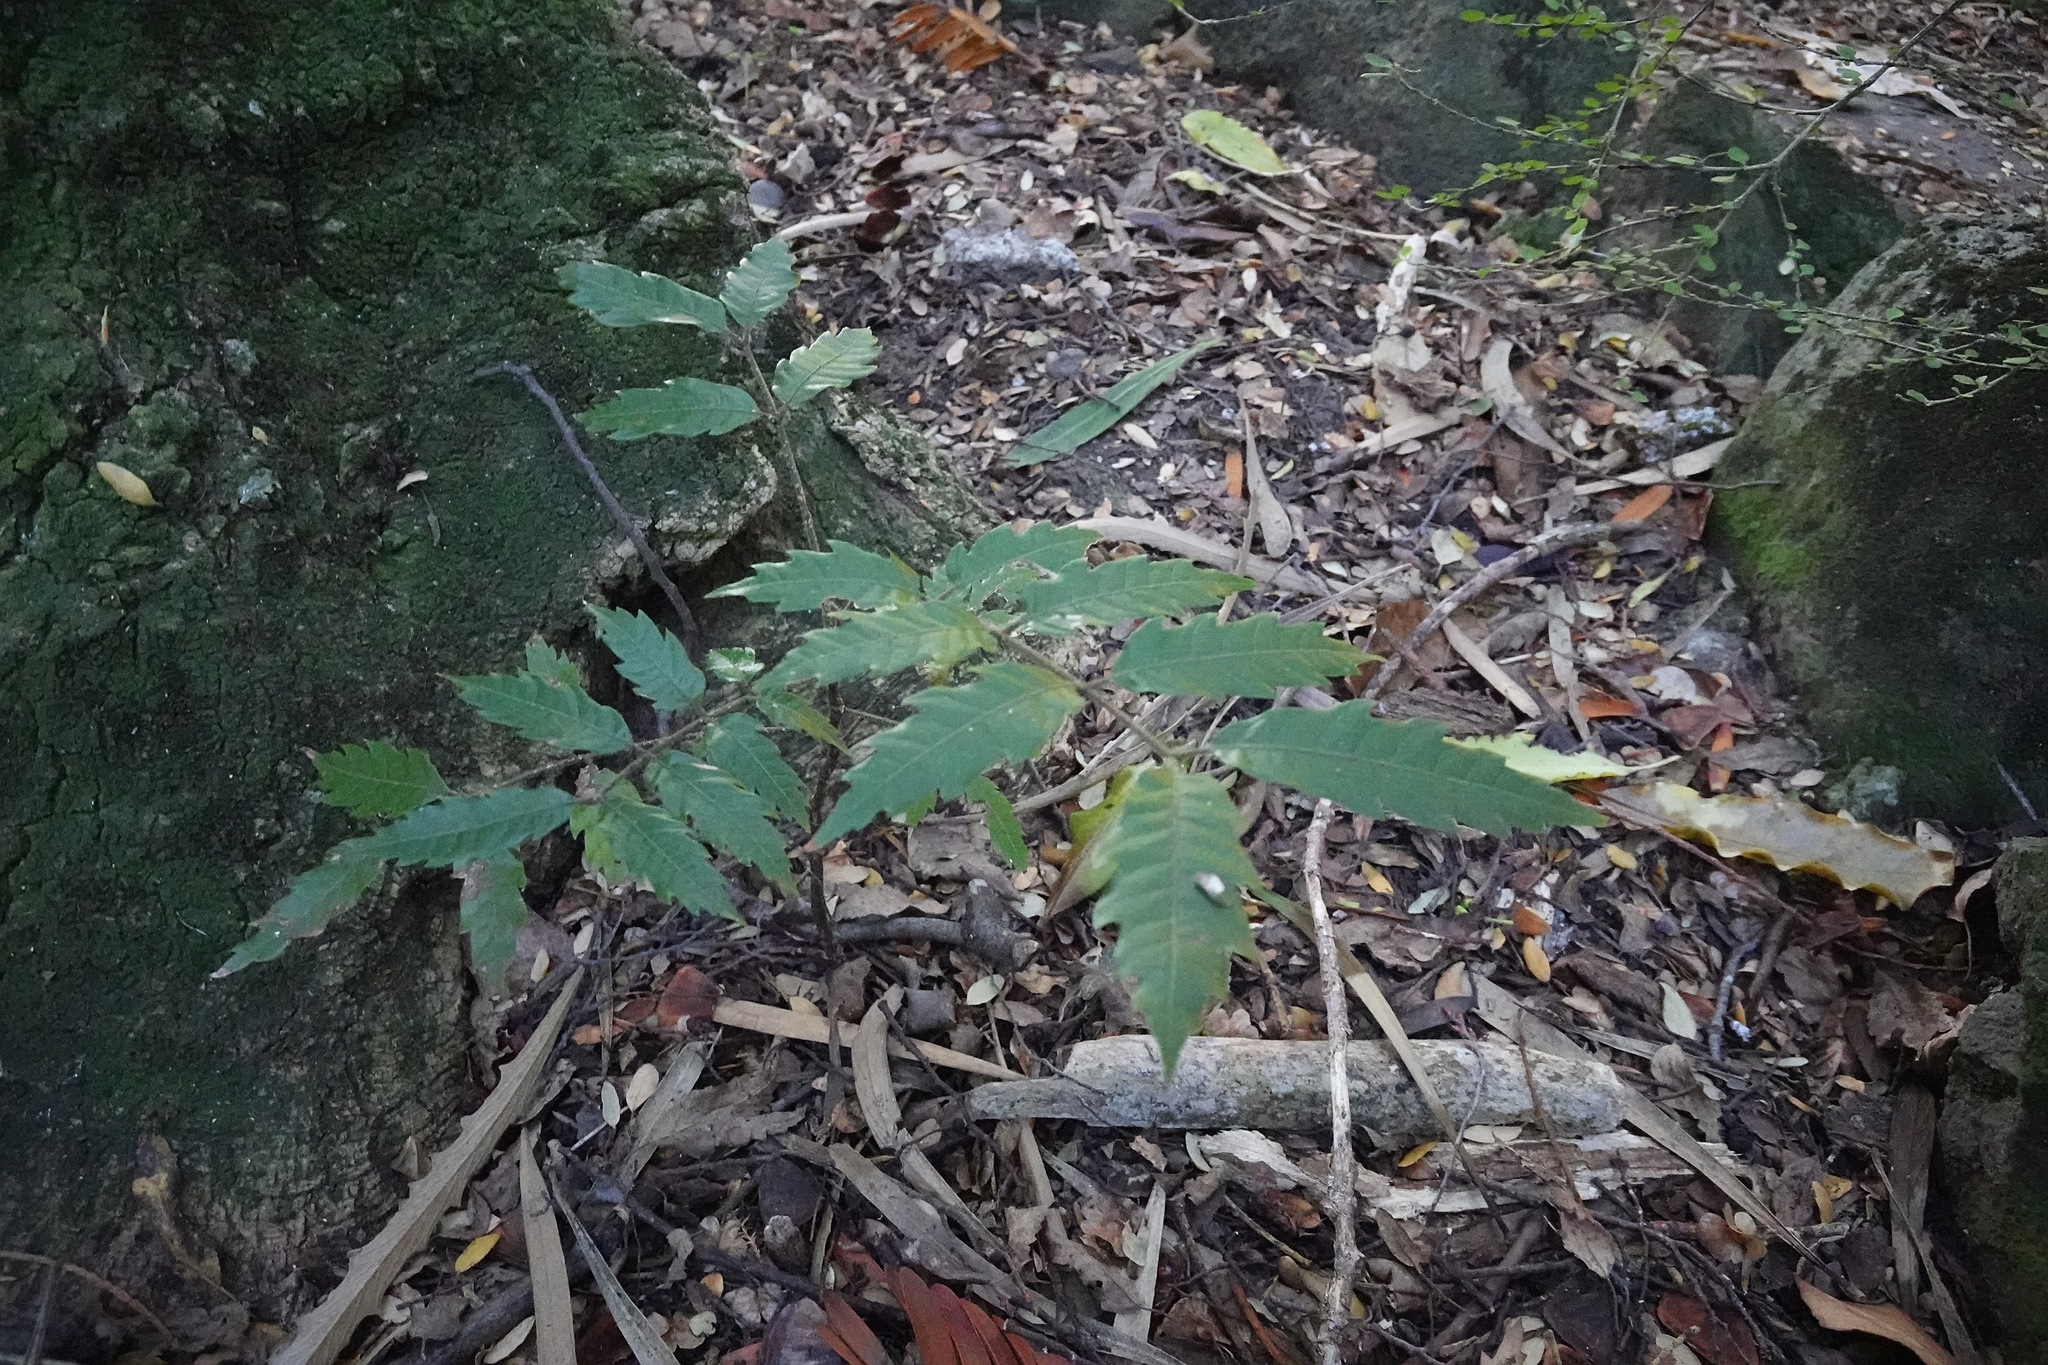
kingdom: Plantae
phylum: Tracheophyta
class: Magnoliopsida
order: Sapindales
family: Sapindaceae
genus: Alectryon
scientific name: Alectryon excelsus
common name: Three kings titoki
